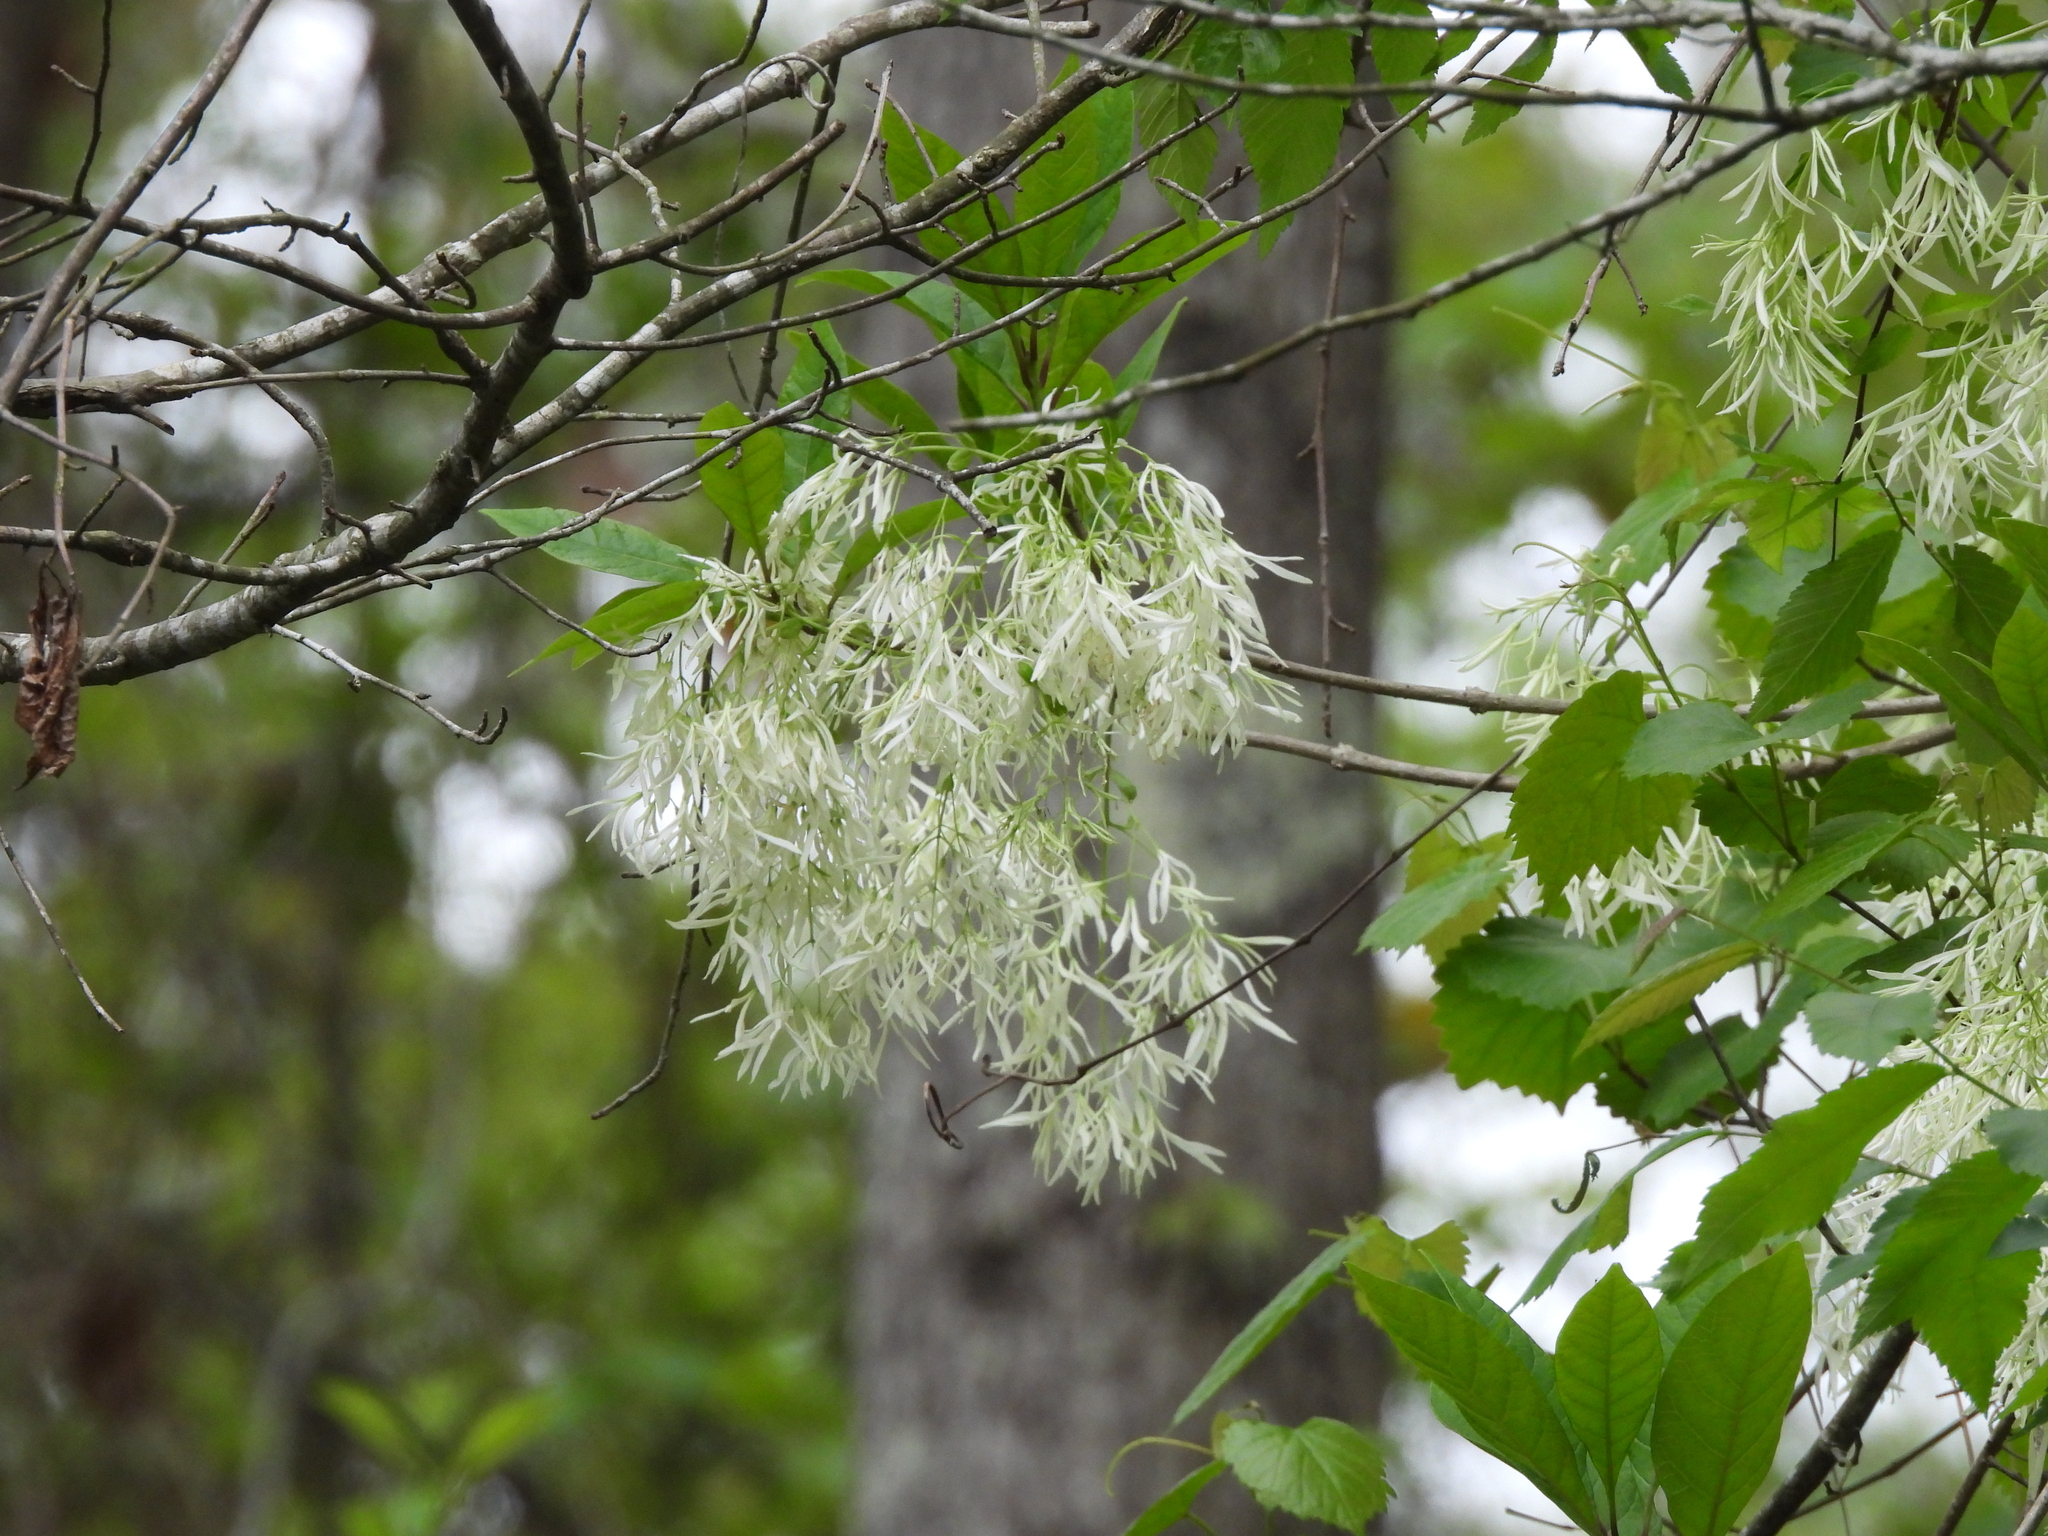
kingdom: Plantae
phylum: Tracheophyta
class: Magnoliopsida
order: Lamiales
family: Oleaceae
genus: Chionanthus
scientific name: Chionanthus virginicus
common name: American fringetree
